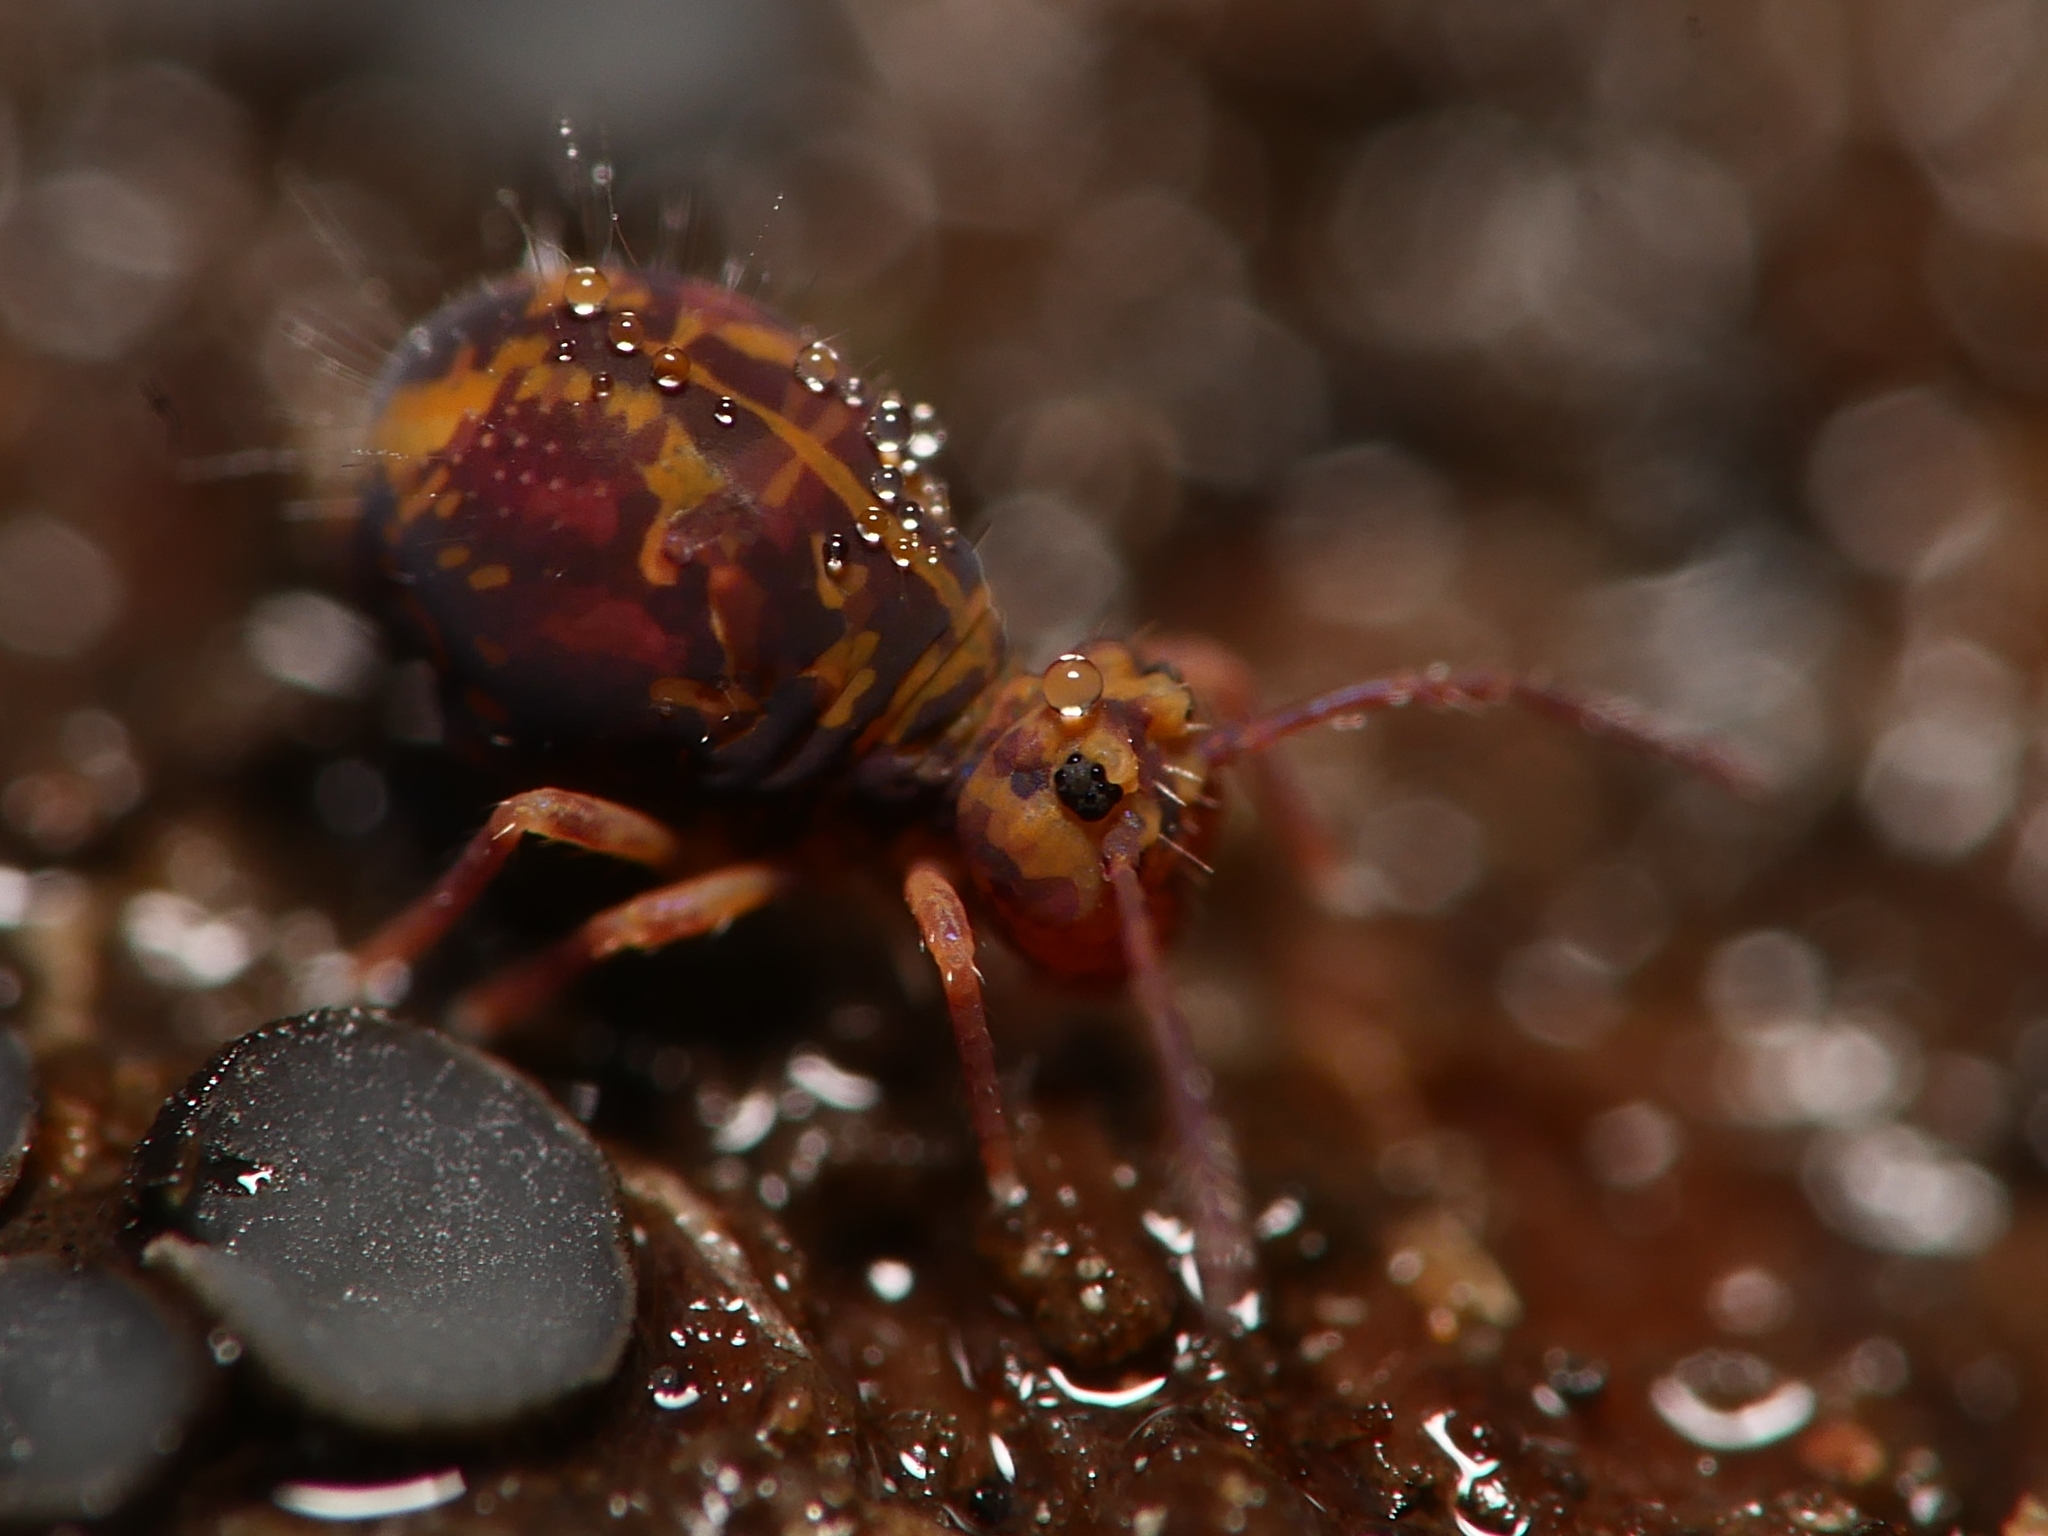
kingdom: Animalia
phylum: Arthropoda
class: Collembola
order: Symphypleona
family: Dicyrtomidae
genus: Dicyrtomina
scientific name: Dicyrtomina ornata
